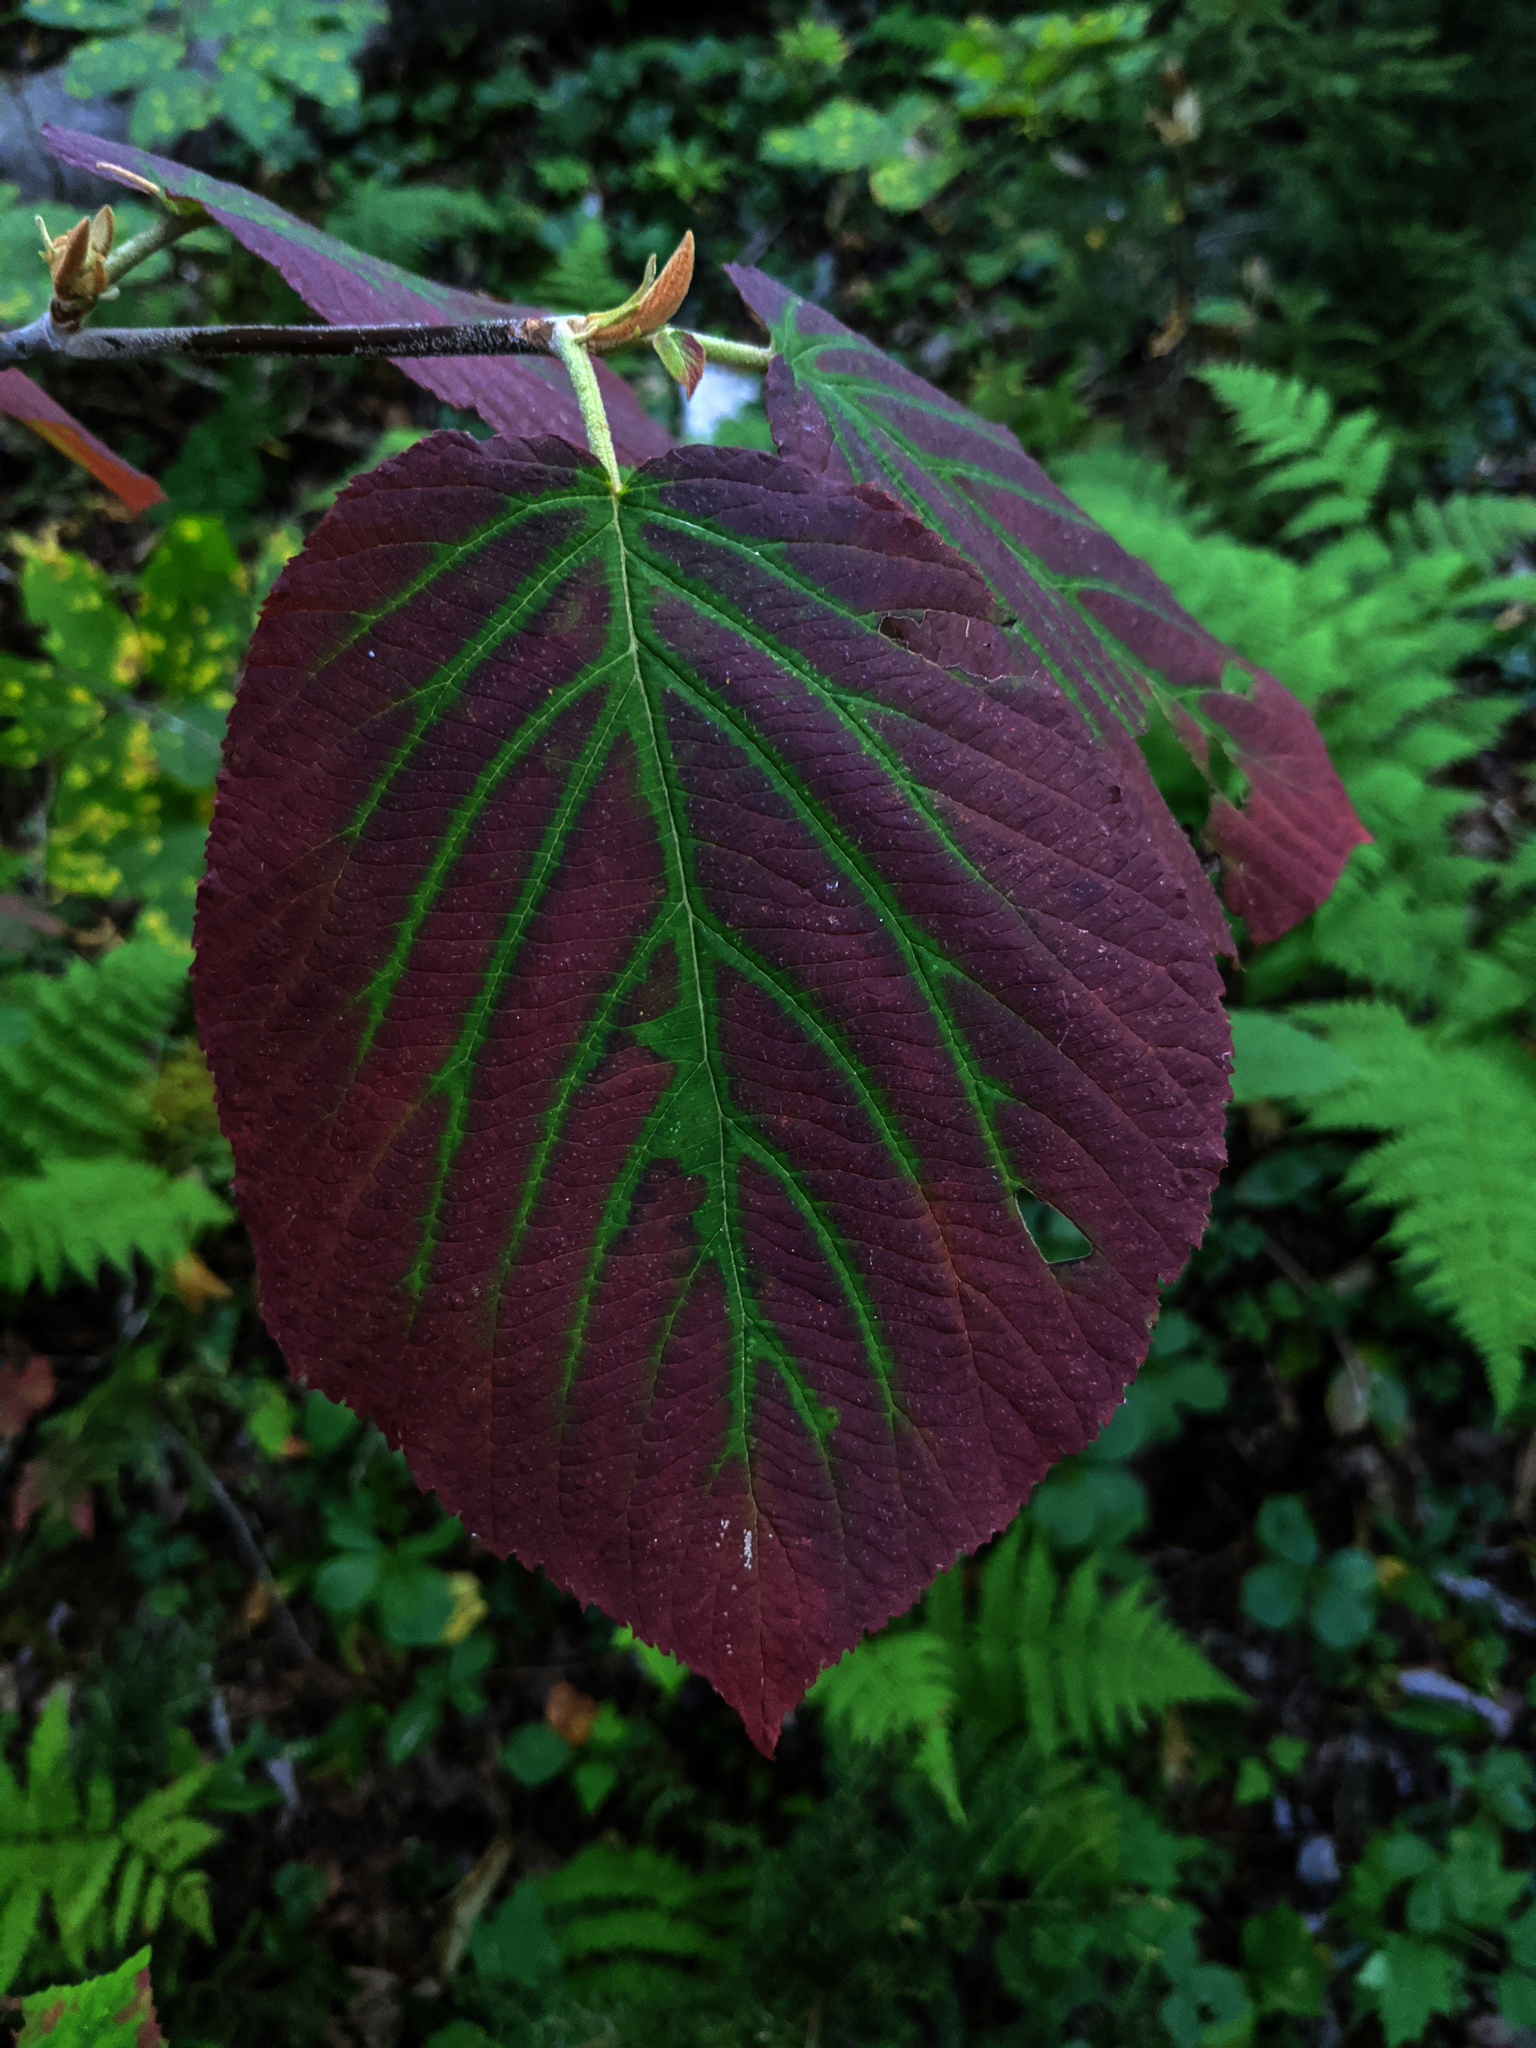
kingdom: Plantae
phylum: Tracheophyta
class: Magnoliopsida
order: Dipsacales
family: Viburnaceae
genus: Viburnum
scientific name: Viburnum lantanoides
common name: Hobblebush
